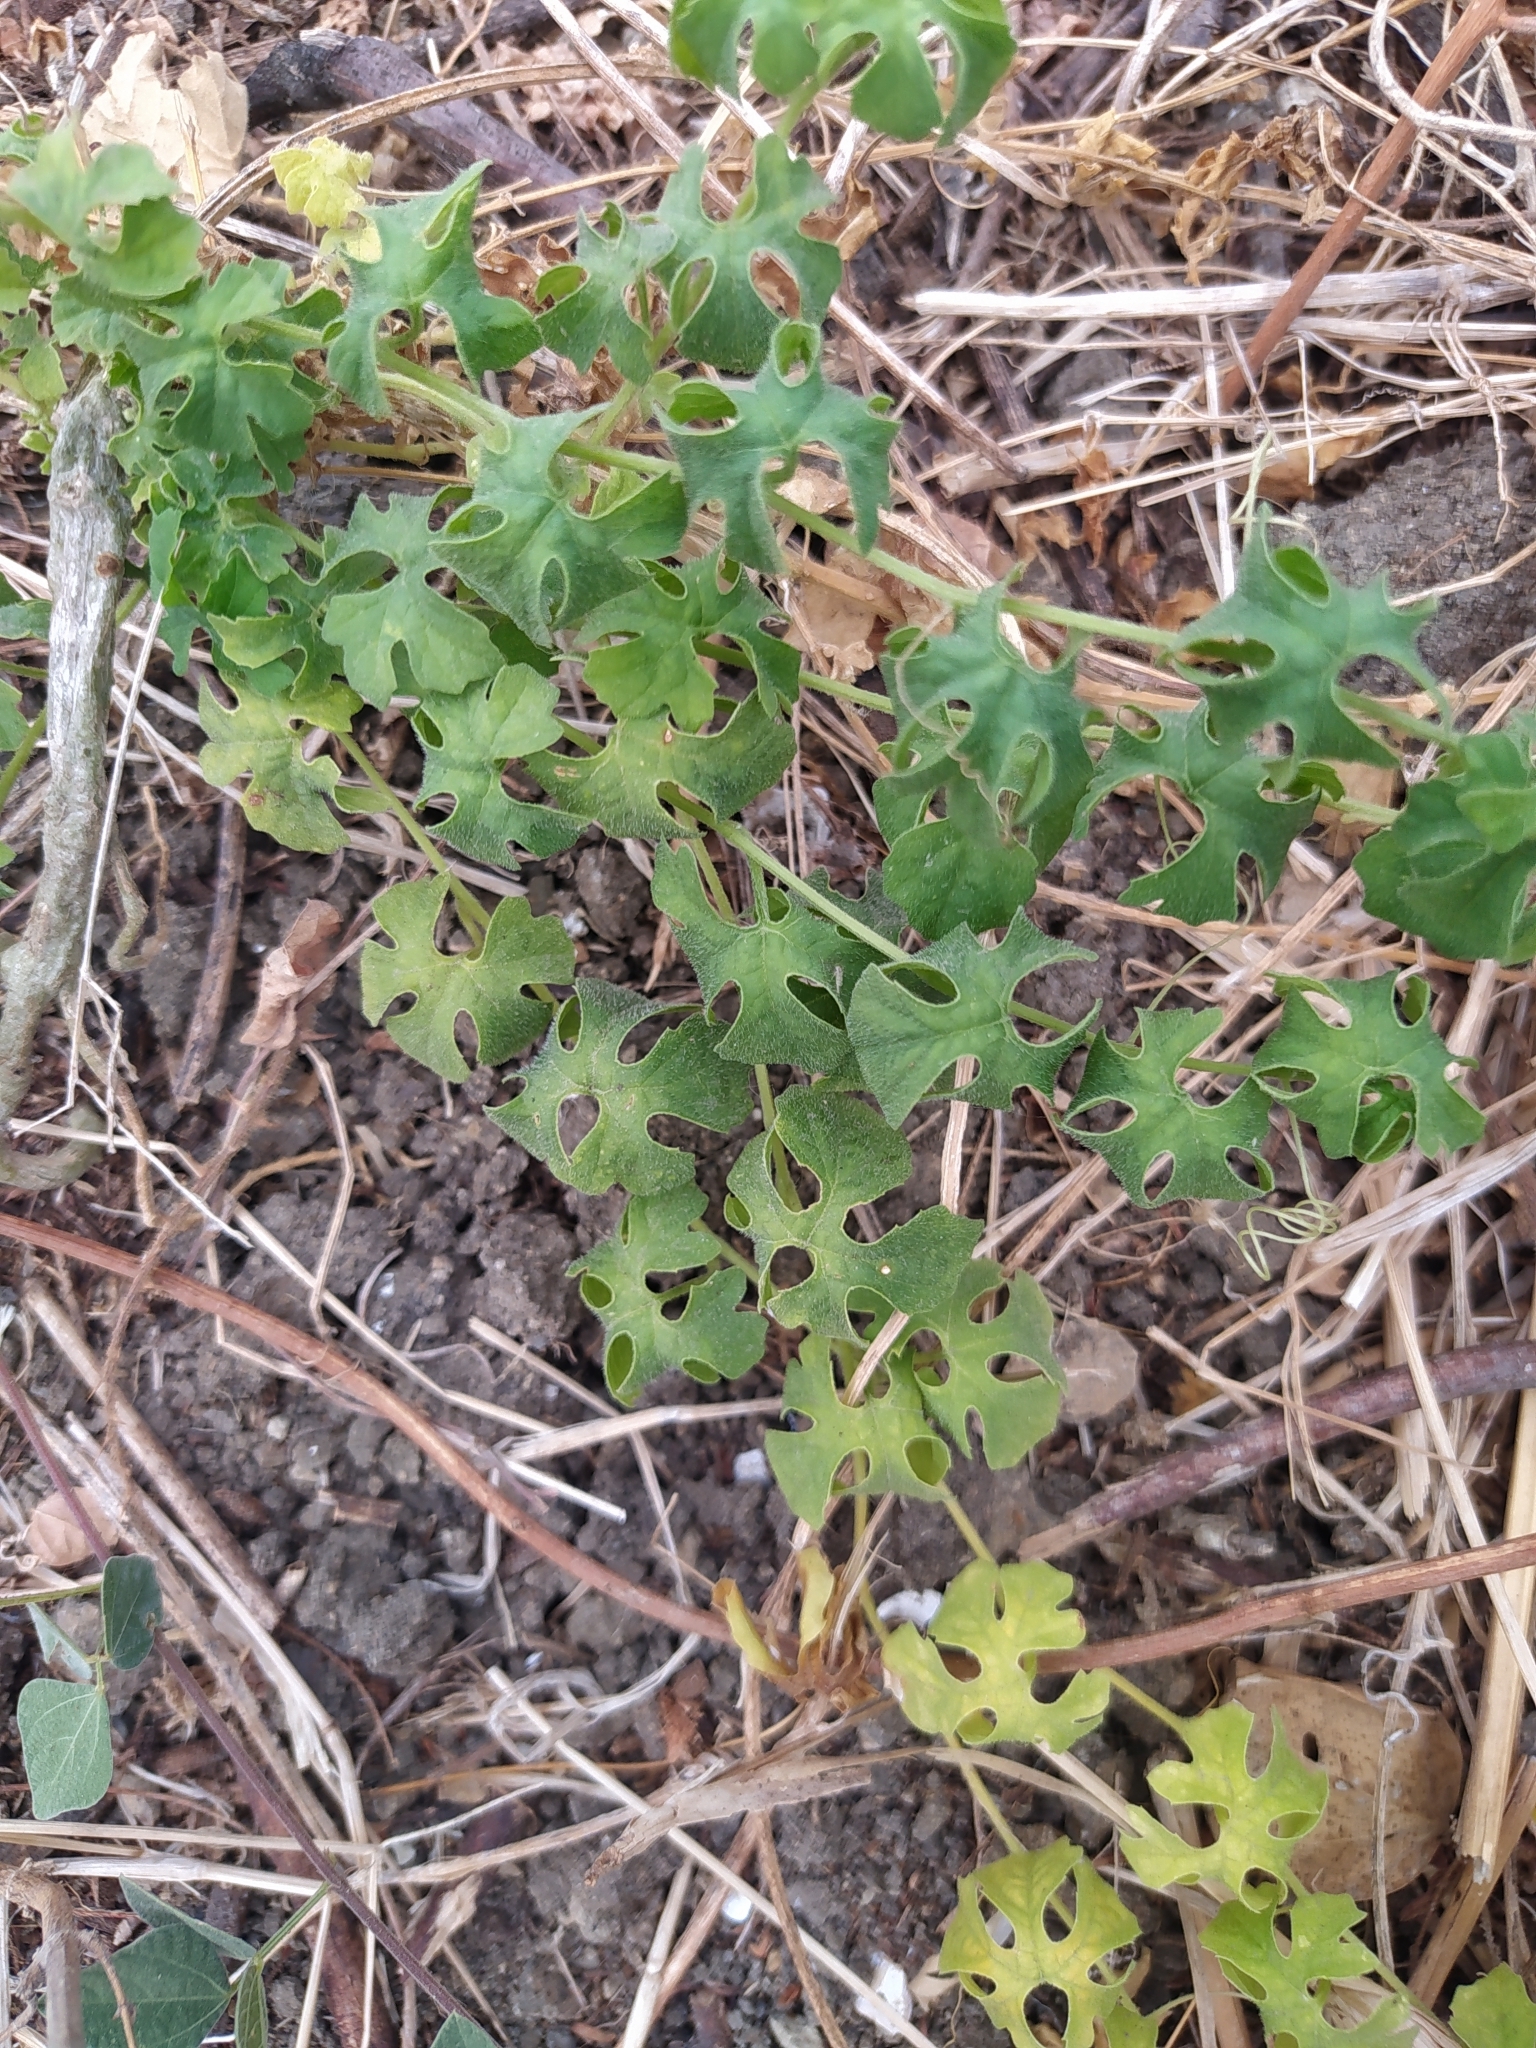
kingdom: Plantae
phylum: Tracheophyta
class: Magnoliopsida
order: Cucurbitales
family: Cucurbitaceae
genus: Momordica
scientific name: Momordica charantia
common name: Balsampear
